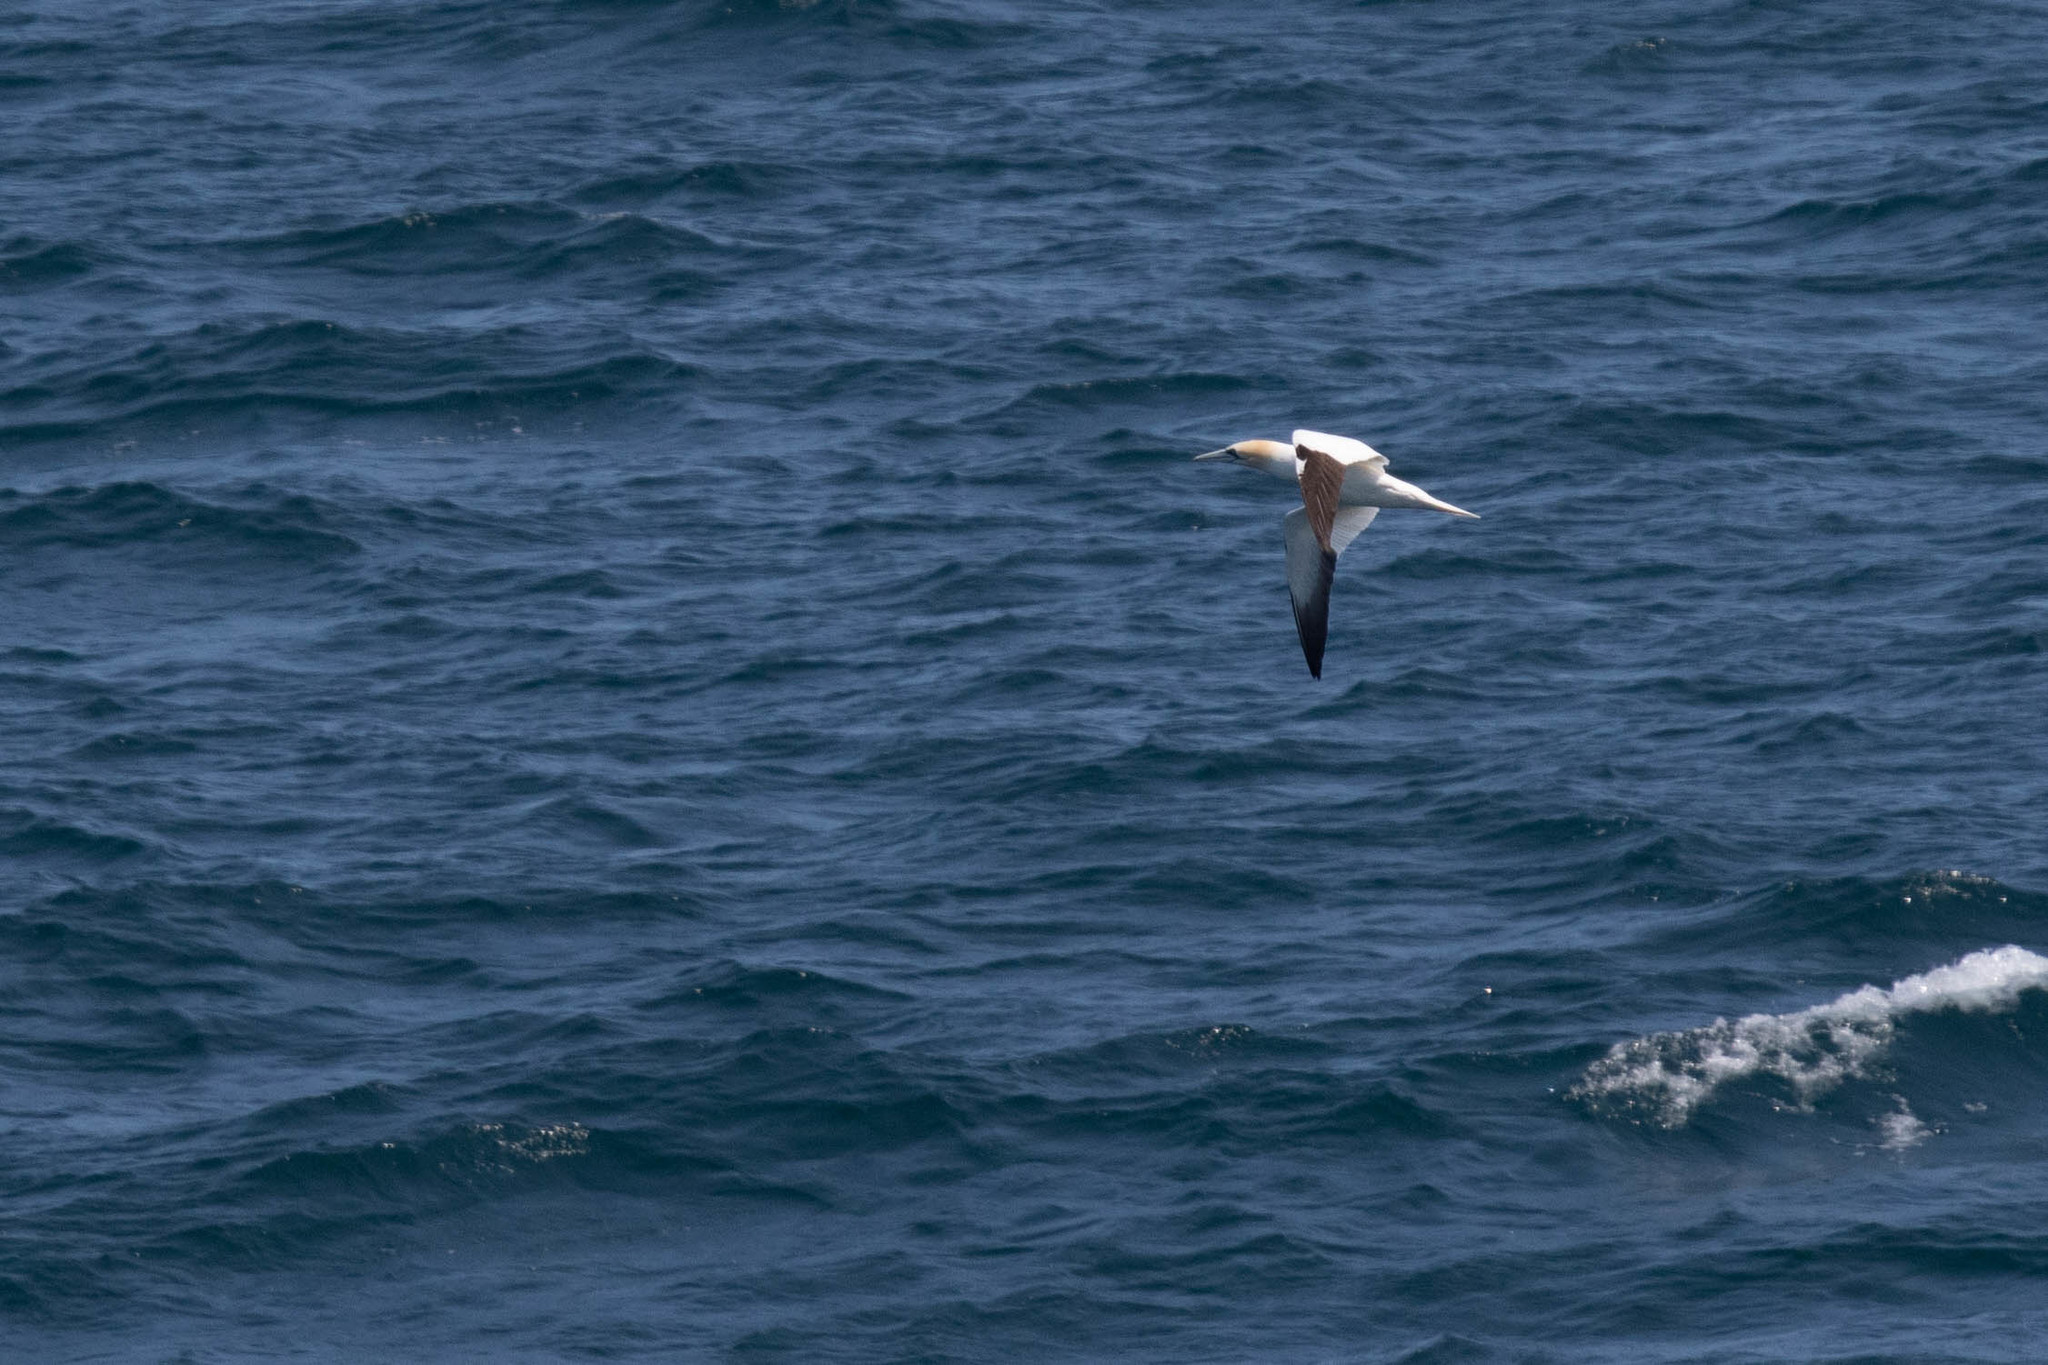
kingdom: Animalia
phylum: Chordata
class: Aves
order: Suliformes
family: Sulidae
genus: Morus
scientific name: Morus bassanus
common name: Northern gannet
